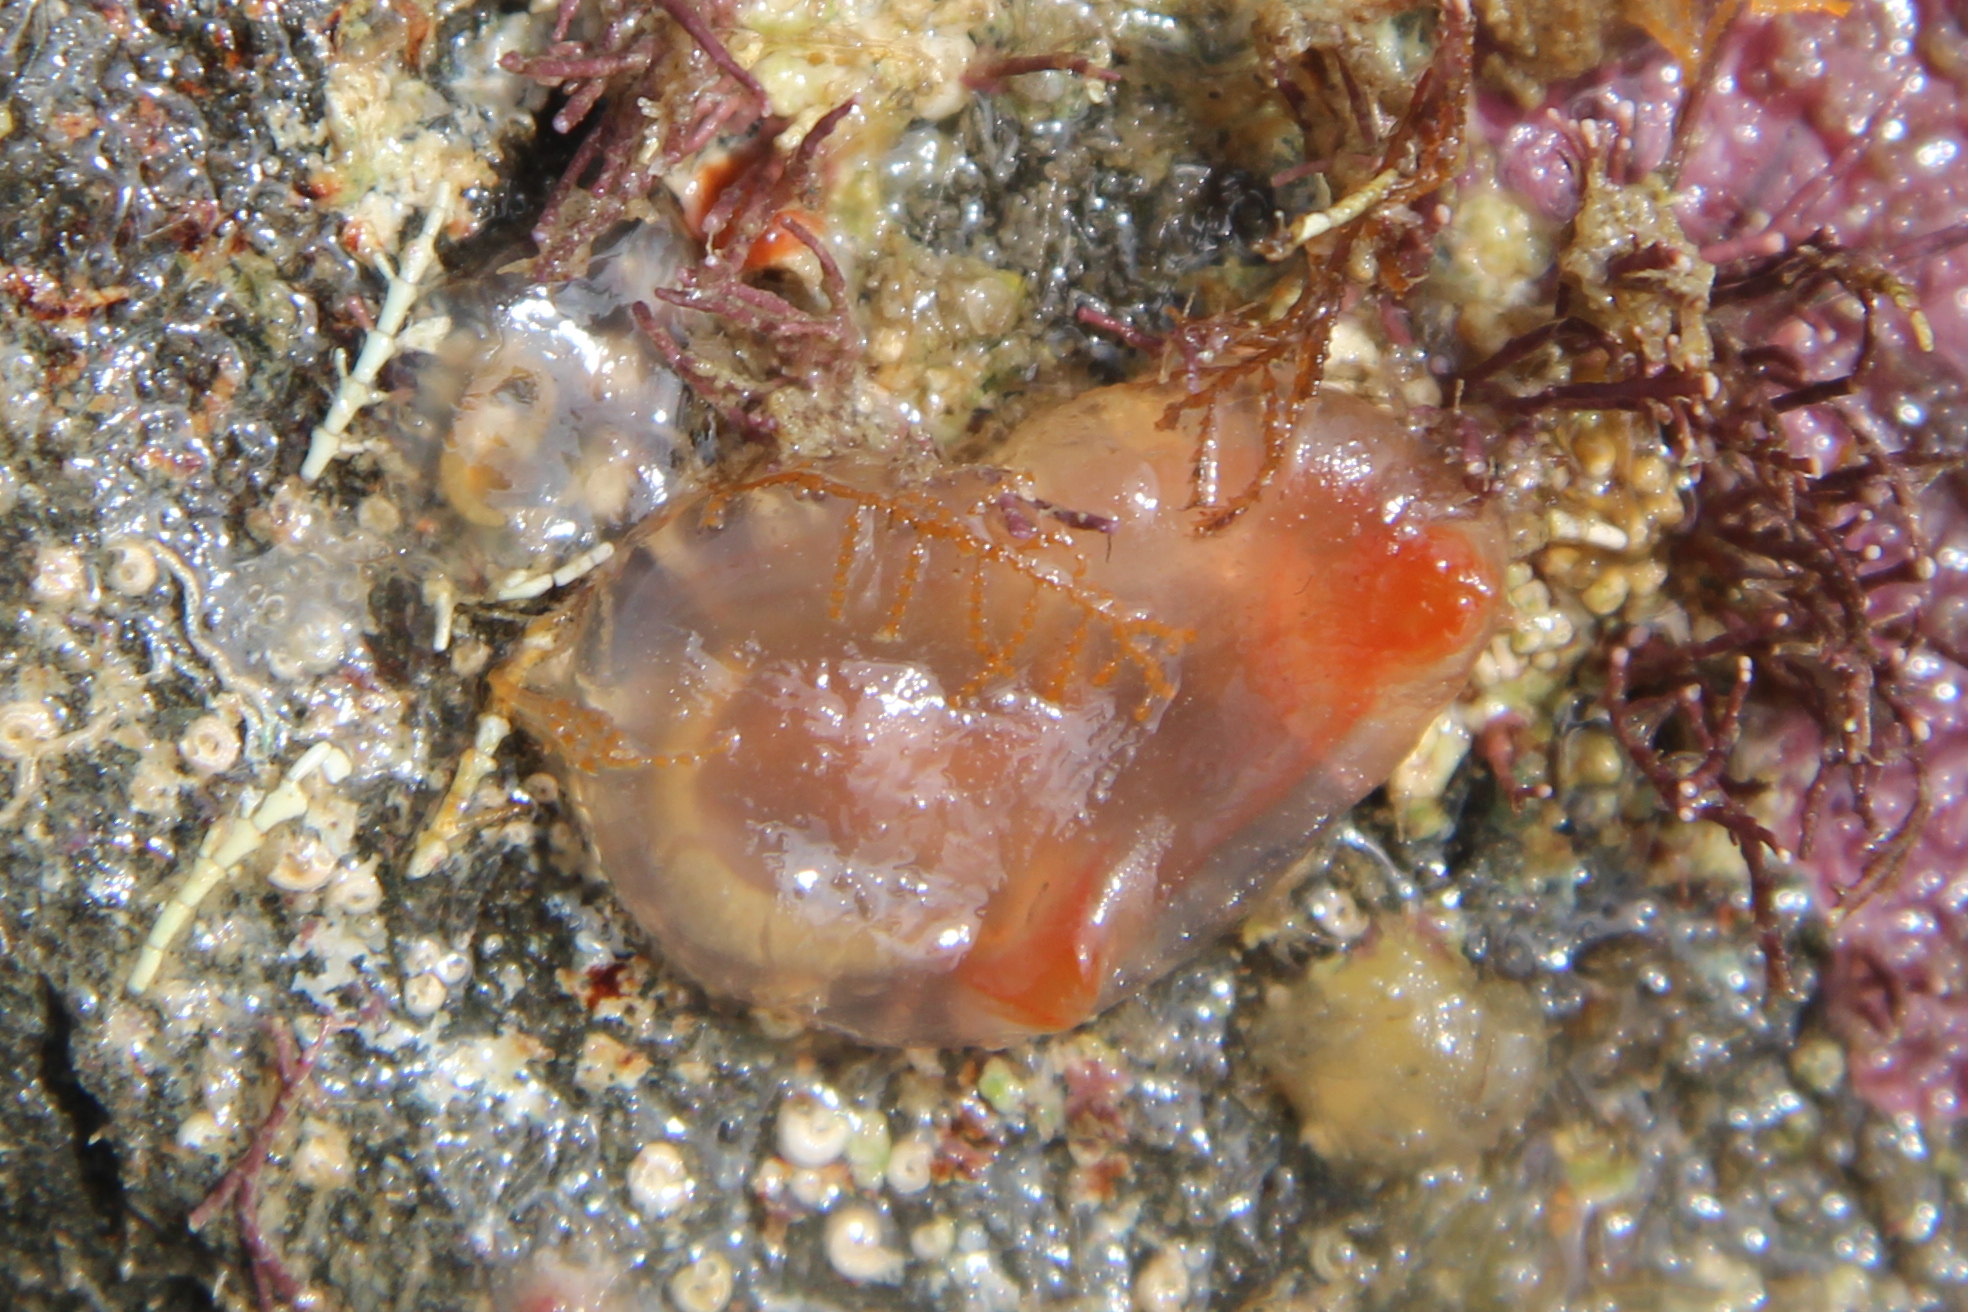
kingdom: Animalia
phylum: Chordata
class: Ascidiacea
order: Phlebobranchia
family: Corellidae
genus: Corella
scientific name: Corella eumyota
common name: Orange-tipped sea squirt
